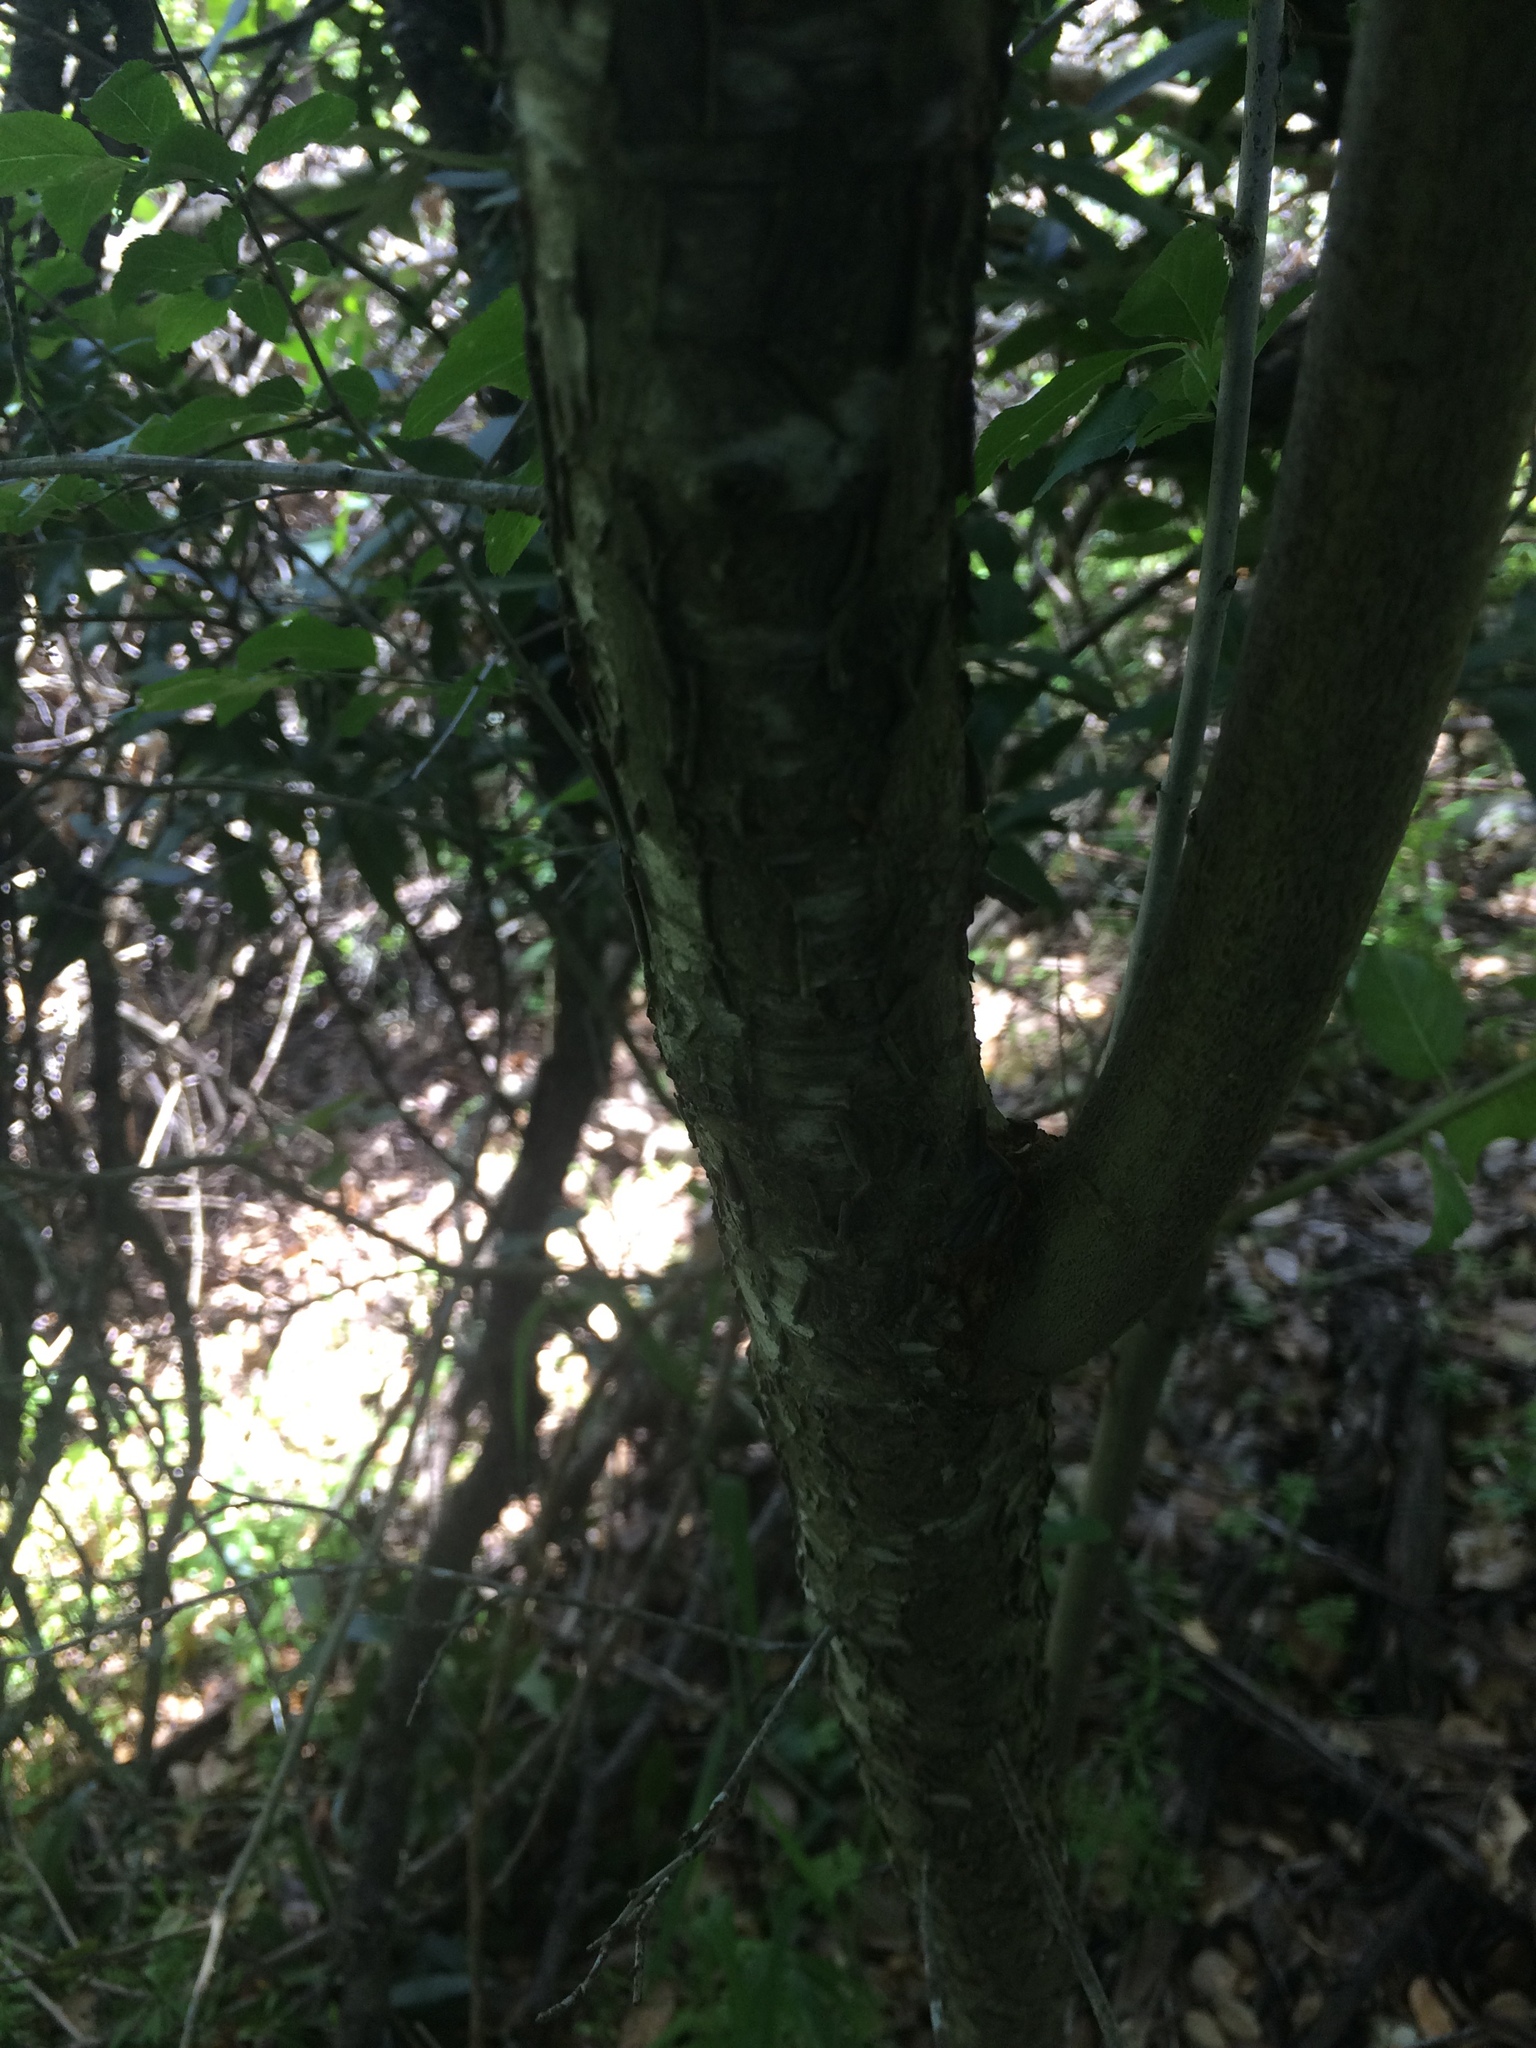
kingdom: Plantae
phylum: Tracheophyta
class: Magnoliopsida
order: Rosales
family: Rosaceae
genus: Prunus
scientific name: Prunus cerasifera
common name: Cherry plum
